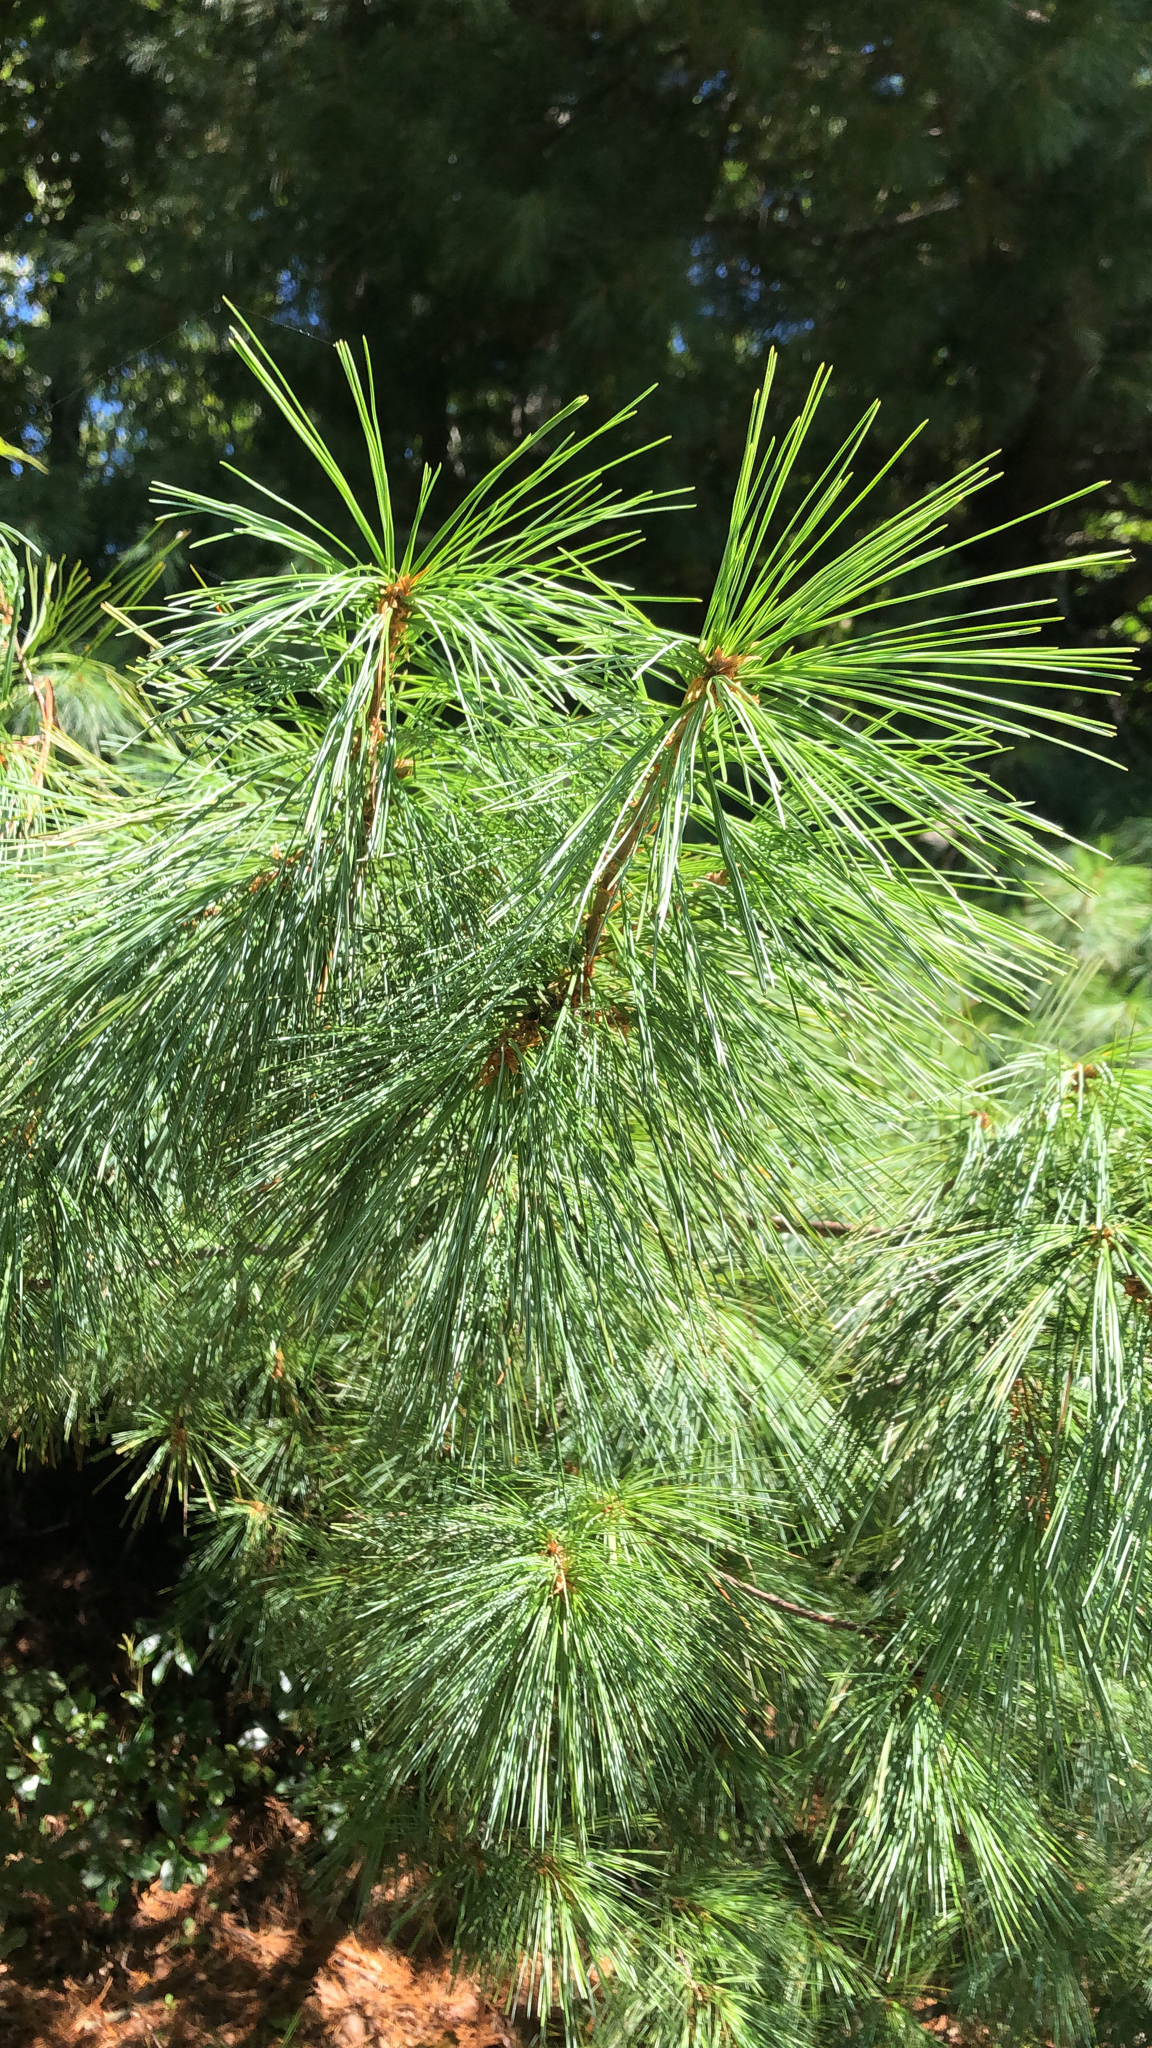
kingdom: Plantae
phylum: Tracheophyta
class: Pinopsida
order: Pinales
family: Pinaceae
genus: Pinus
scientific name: Pinus strobus
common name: Weymouth pine
